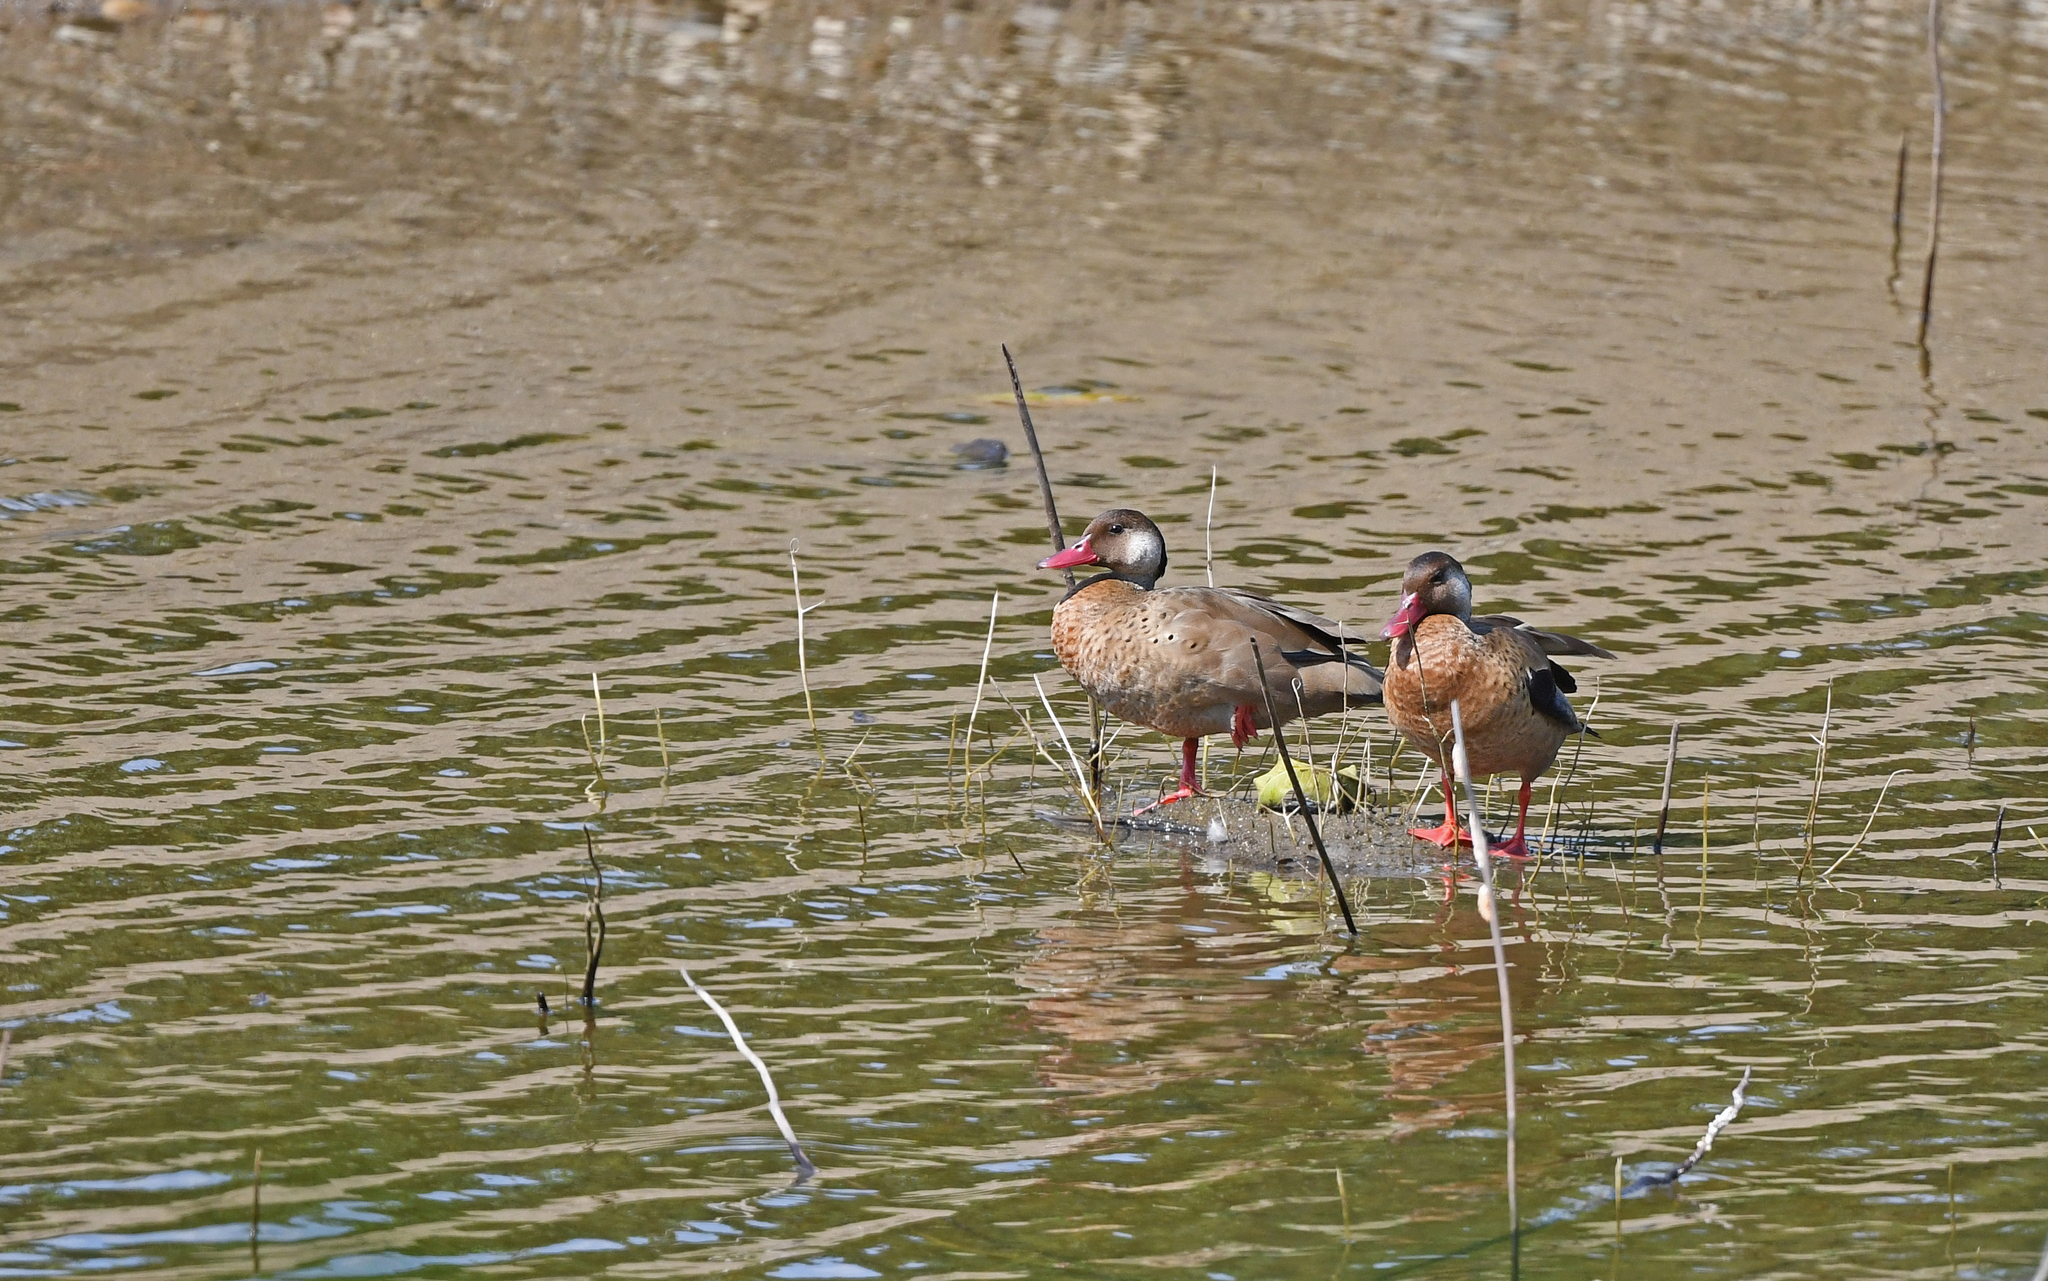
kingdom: Animalia
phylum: Chordata
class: Aves
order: Anseriformes
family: Anatidae
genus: Amazonetta
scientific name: Amazonetta brasiliensis
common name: Brazilian teal
